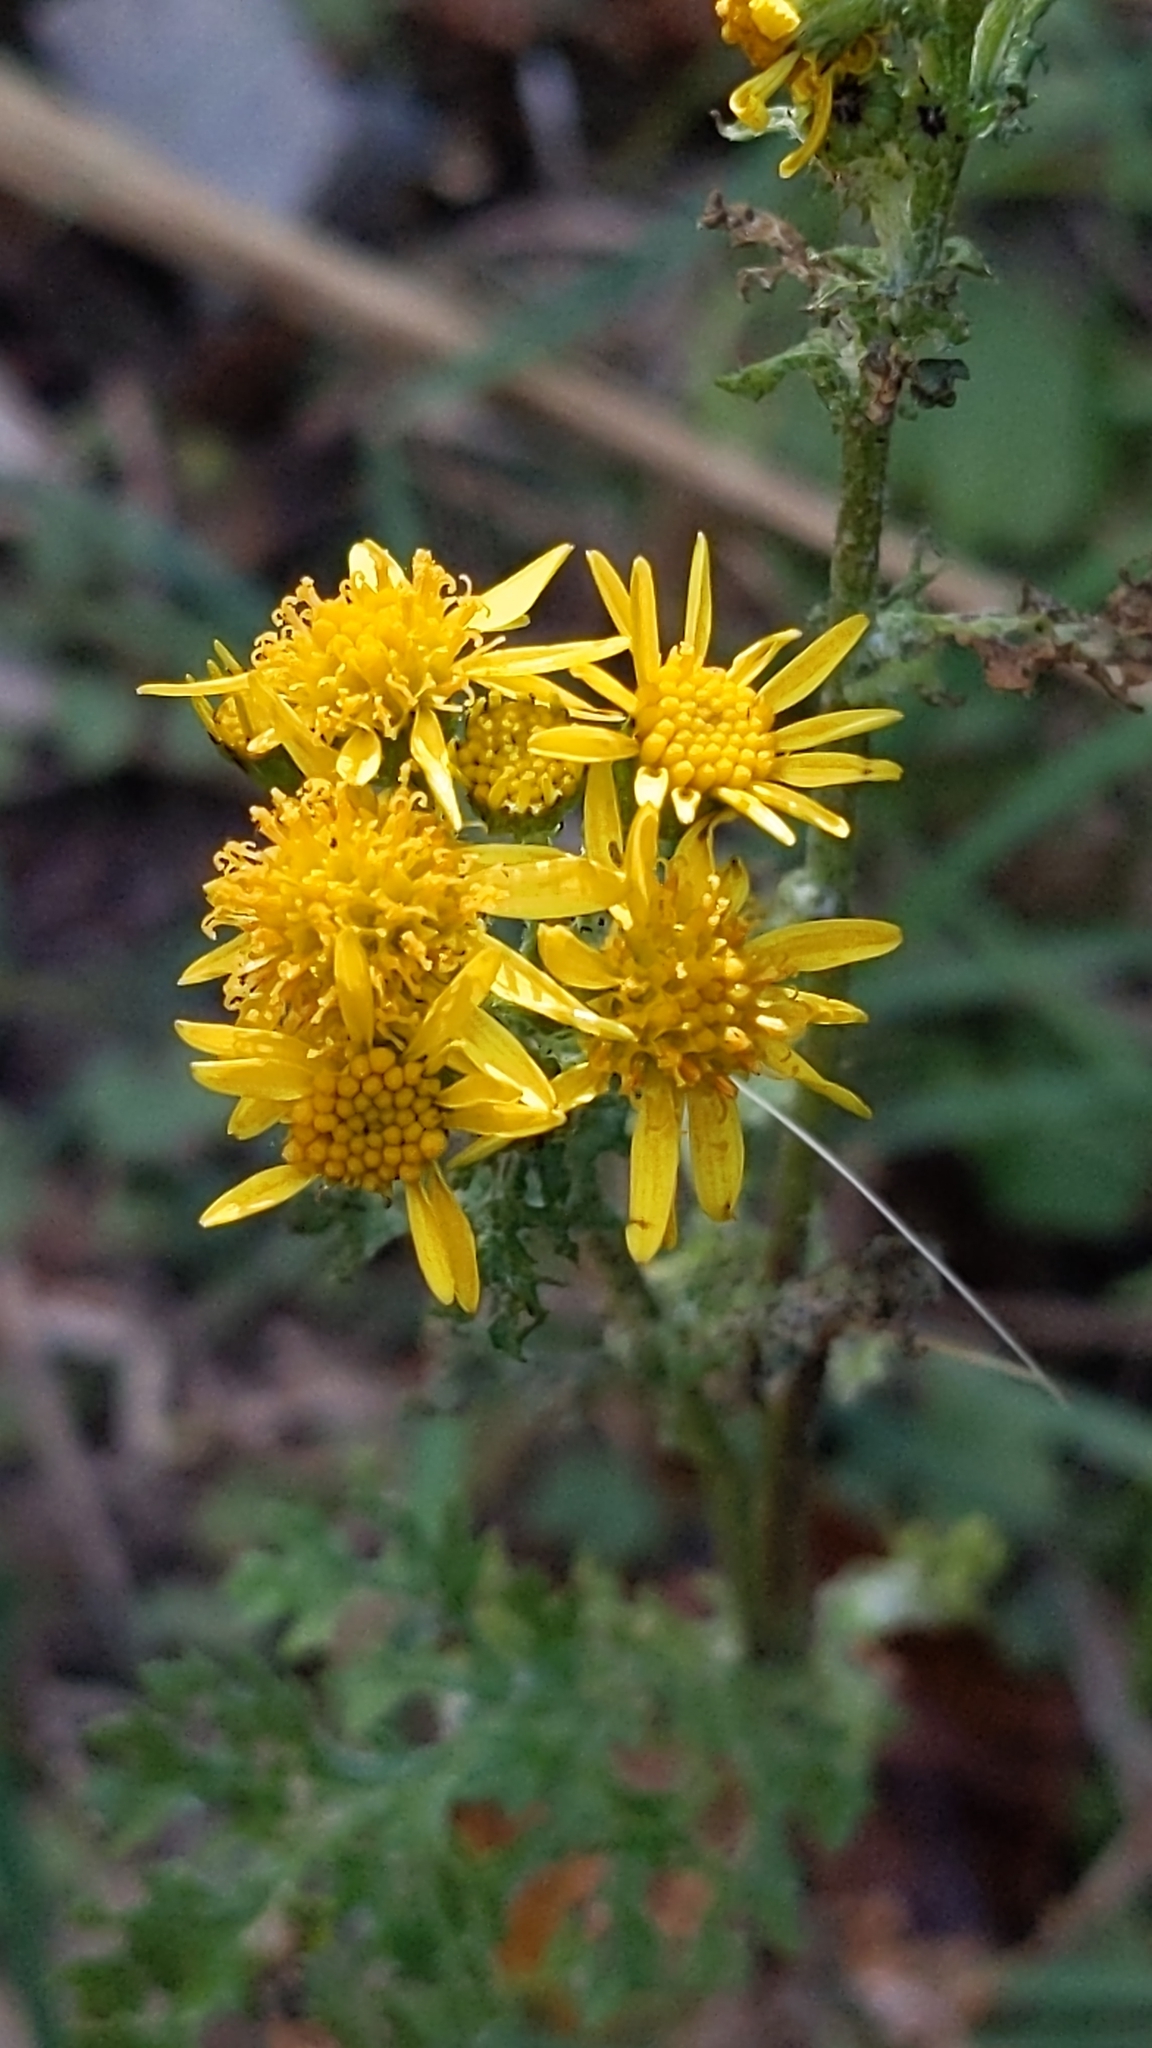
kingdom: Plantae
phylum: Tracheophyta
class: Magnoliopsida
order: Asterales
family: Asteraceae
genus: Jacobaea
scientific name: Jacobaea vulgaris
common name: Stinking willie
